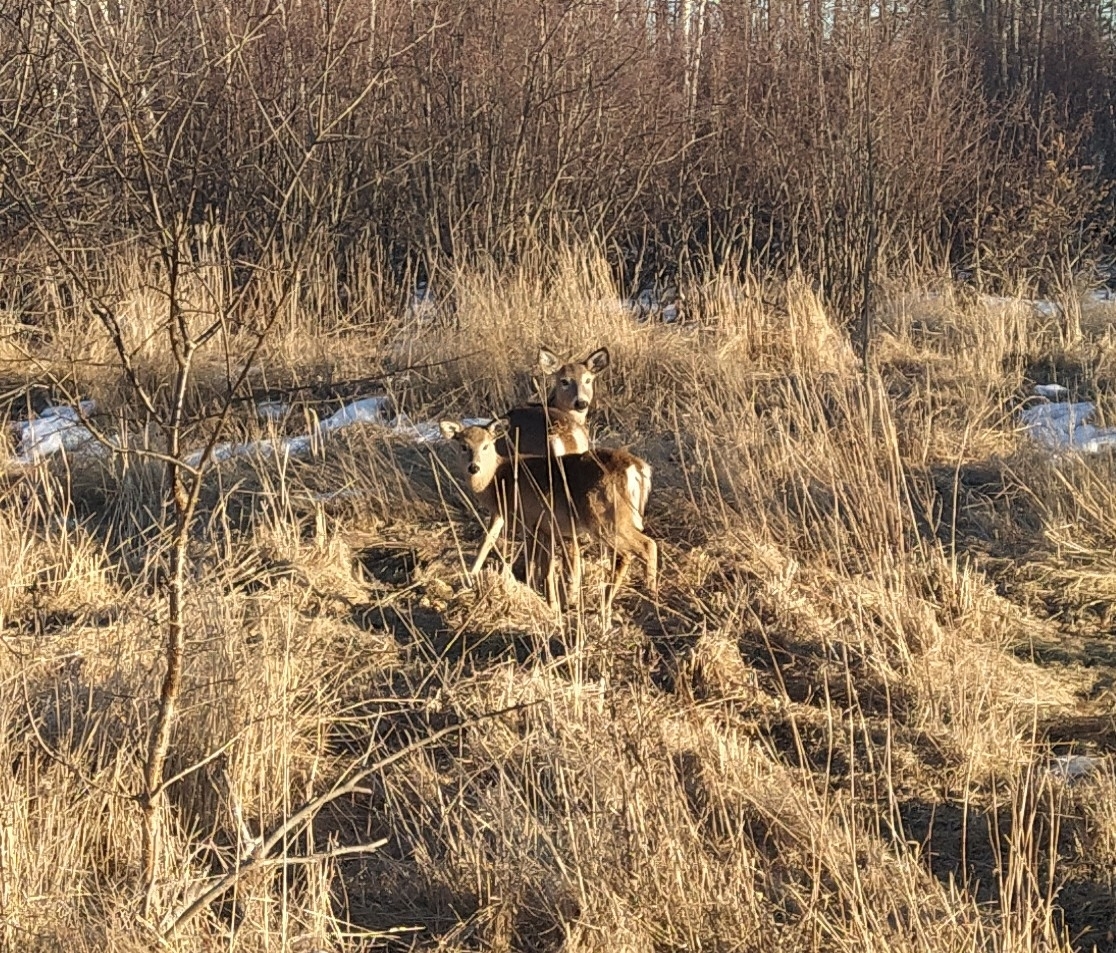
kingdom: Animalia
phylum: Chordata
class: Mammalia
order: Artiodactyla
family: Cervidae
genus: Odocoileus
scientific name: Odocoileus virginianus
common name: White-tailed deer
